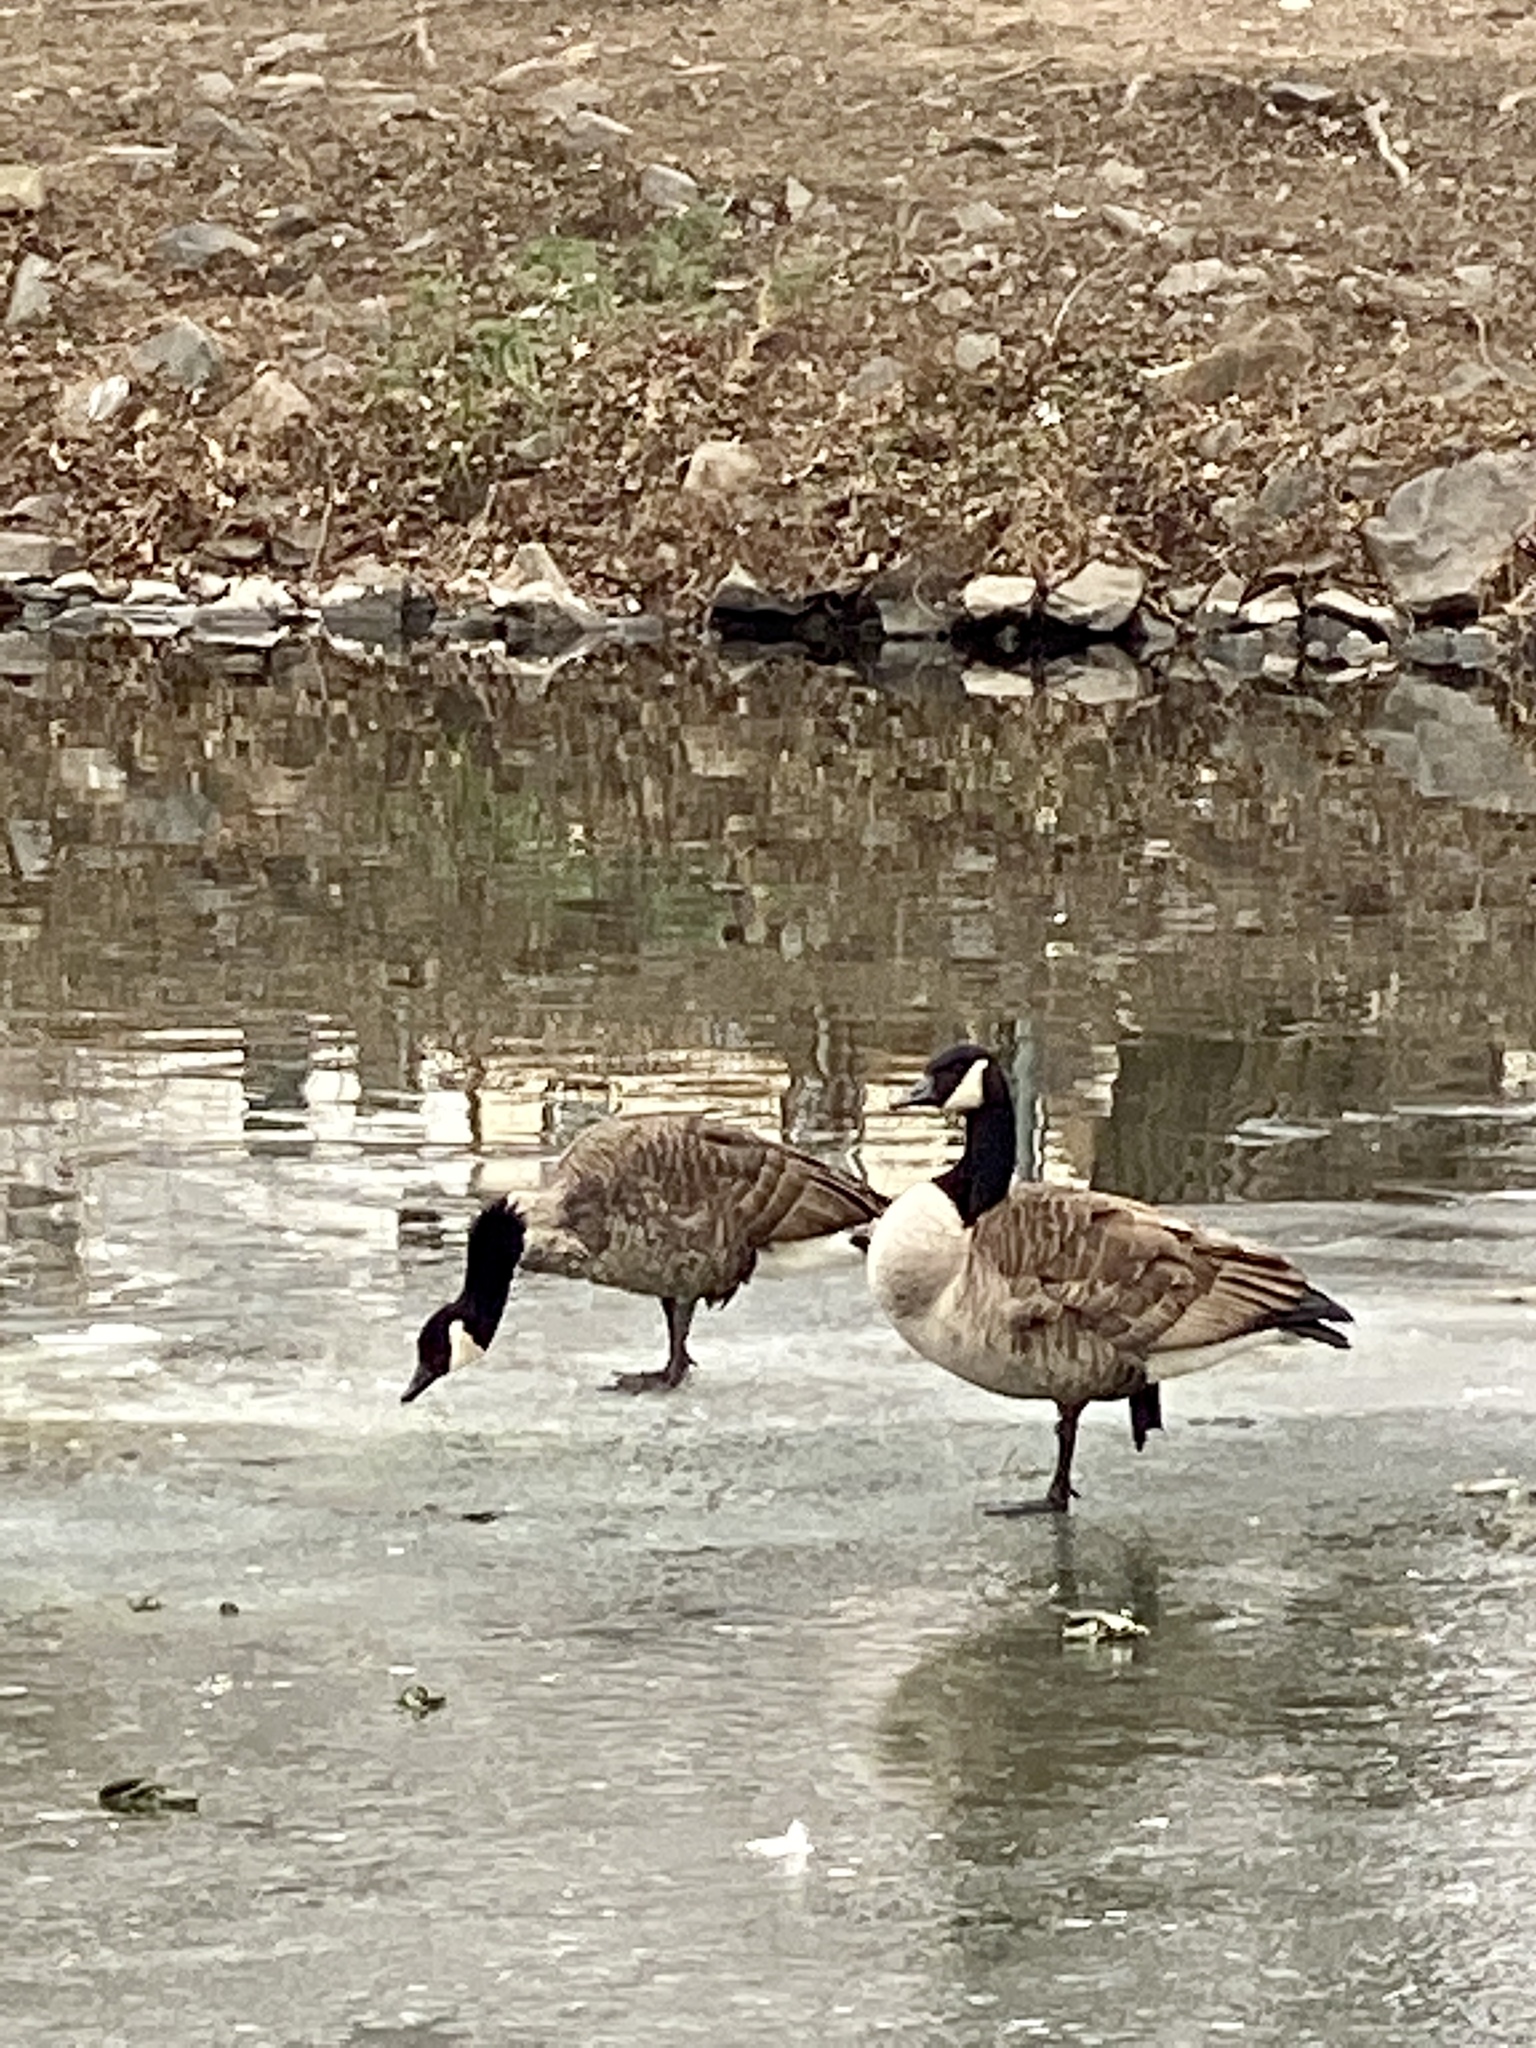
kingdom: Animalia
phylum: Chordata
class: Aves
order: Anseriformes
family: Anatidae
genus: Branta
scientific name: Branta canadensis
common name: Canada goose
